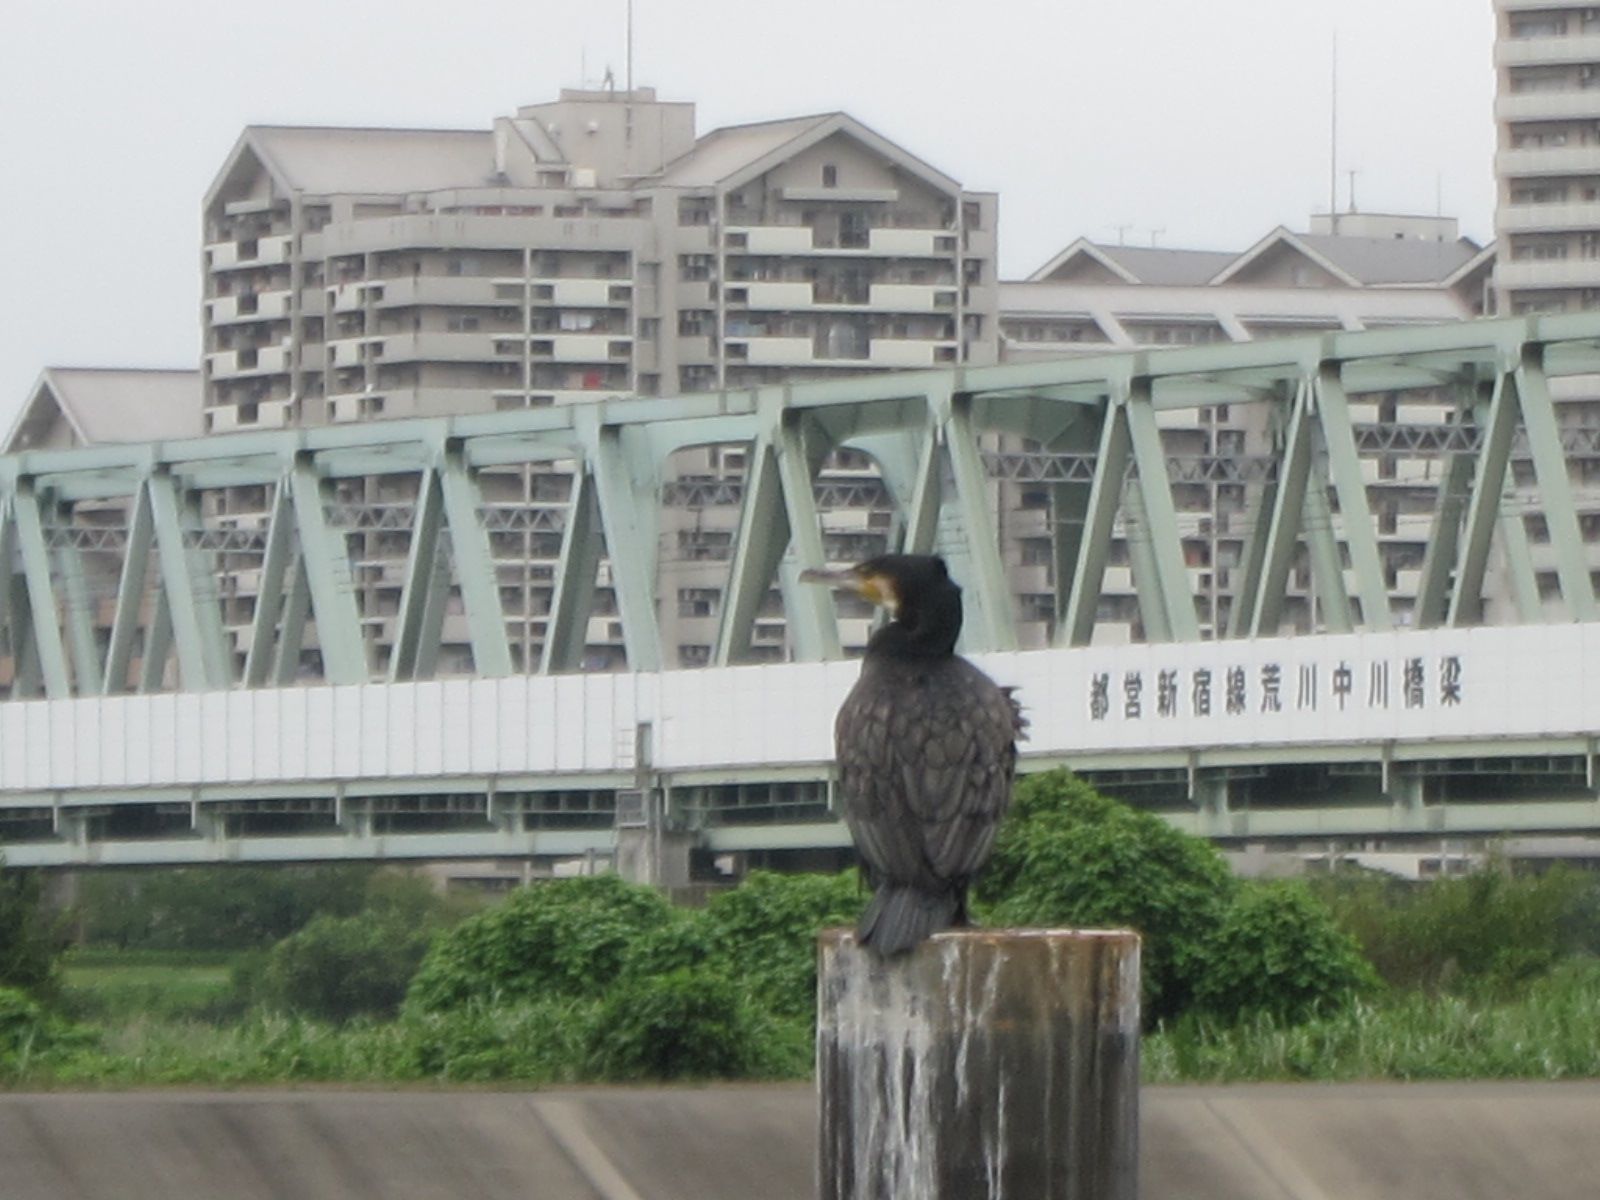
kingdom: Animalia
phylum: Chordata
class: Aves
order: Suliformes
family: Phalacrocoracidae
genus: Phalacrocorax
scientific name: Phalacrocorax carbo
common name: Great cormorant
